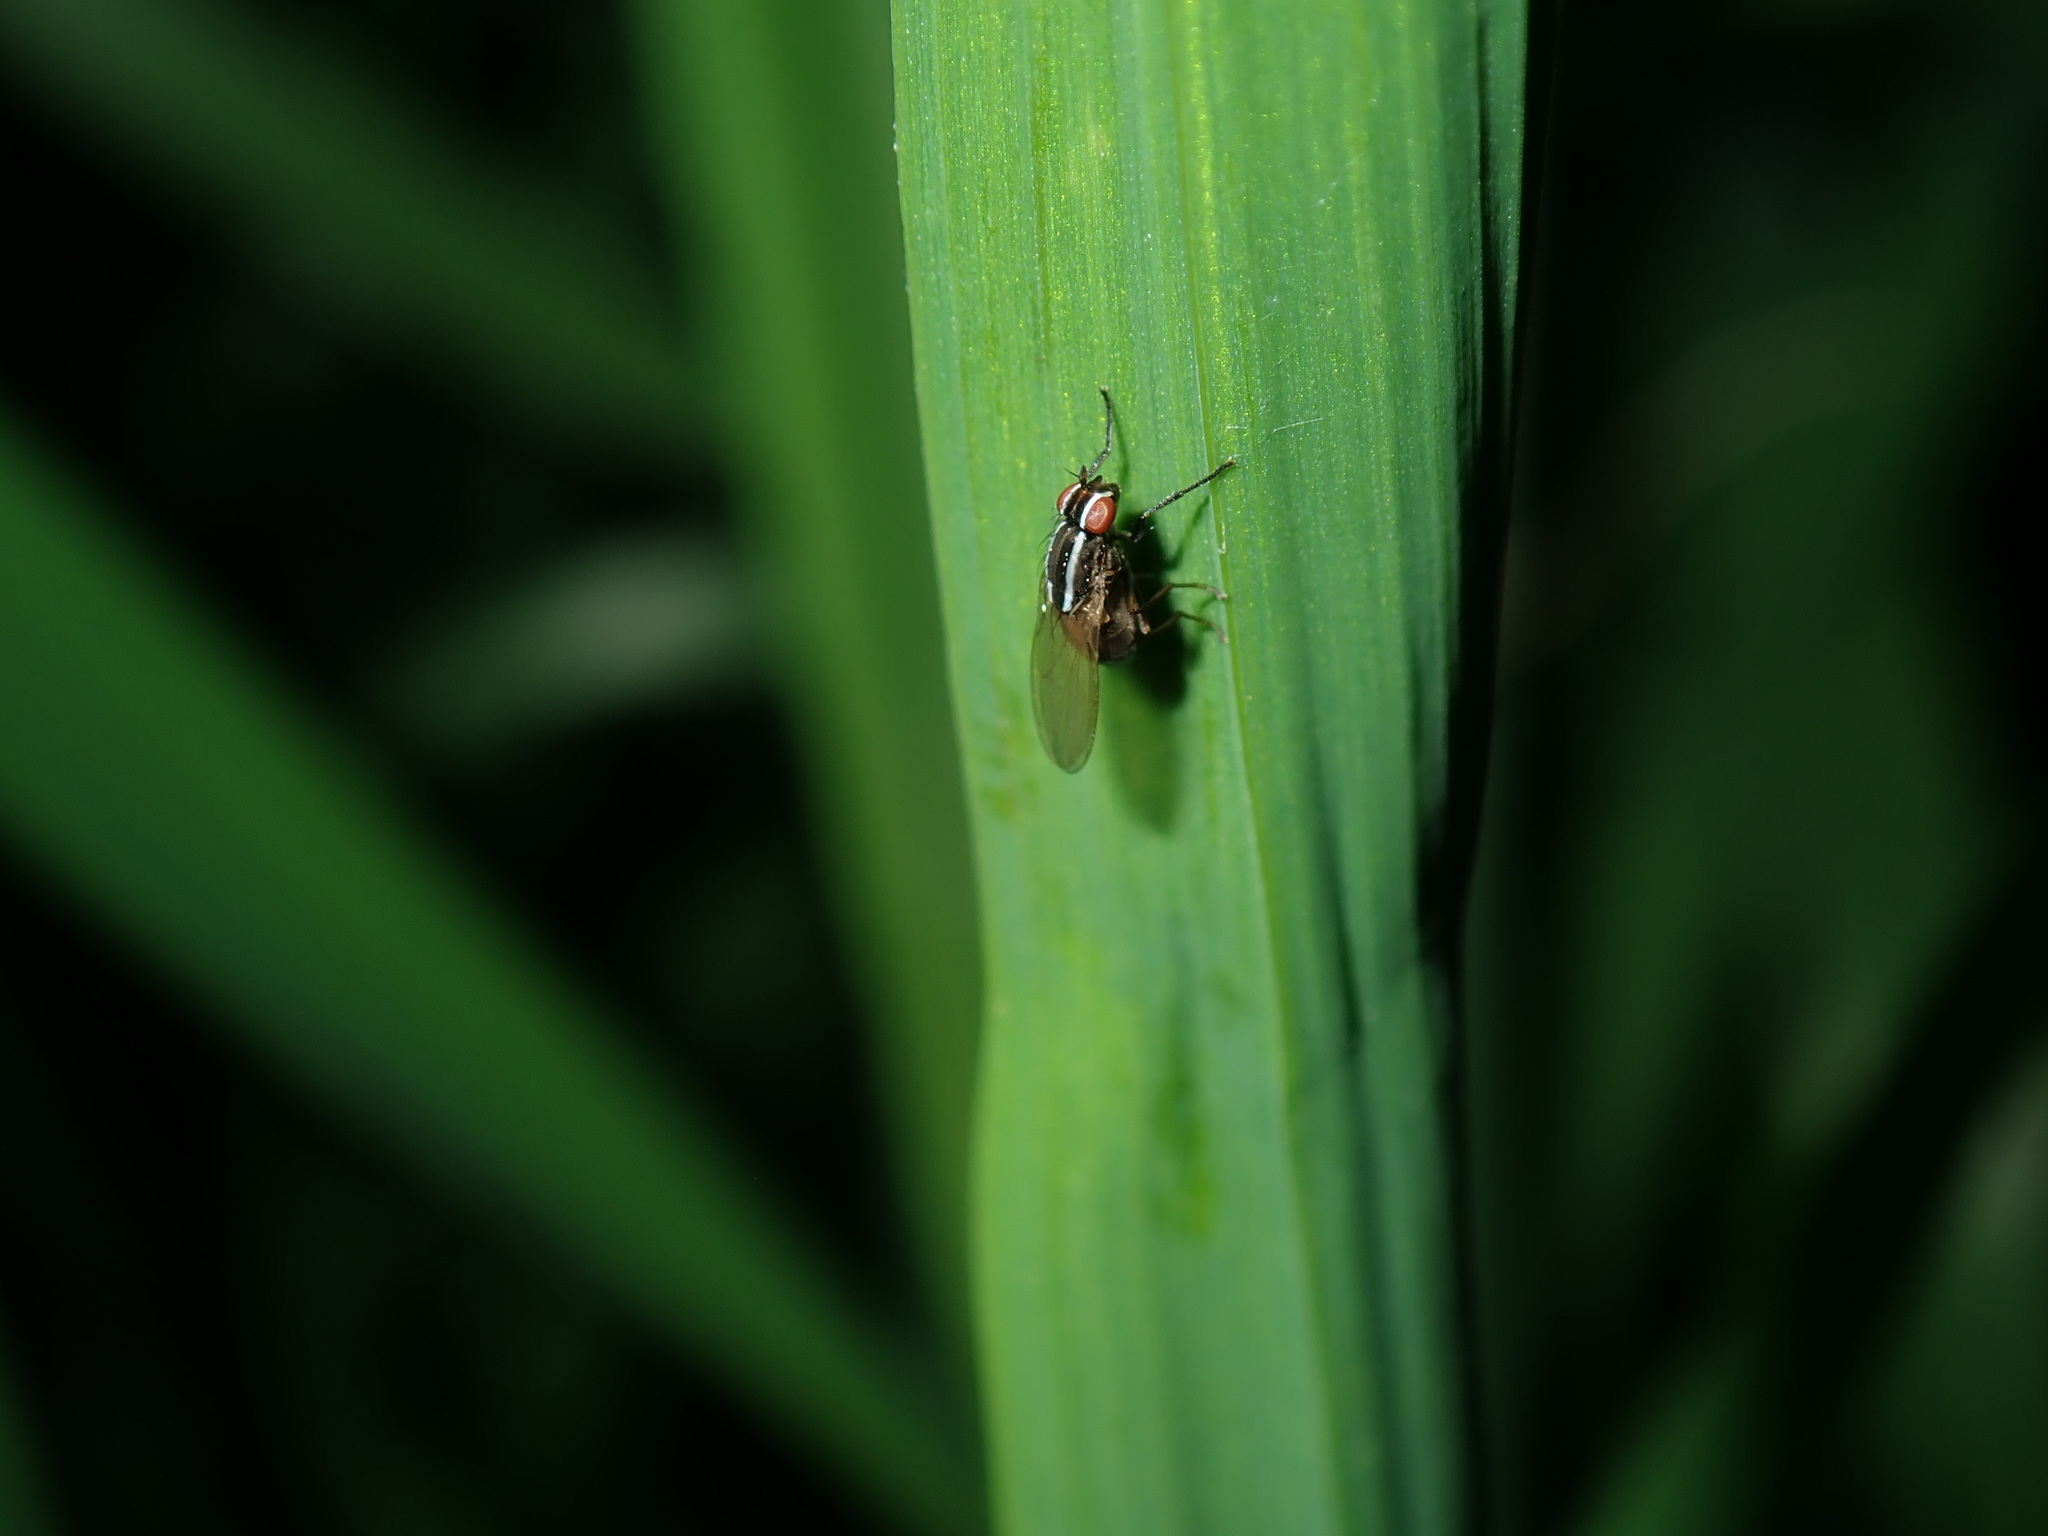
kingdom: Animalia
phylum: Arthropoda
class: Insecta
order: Diptera
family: Lauxaniidae
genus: Poecilohetaerus
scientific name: Poecilohetaerus aquilus
